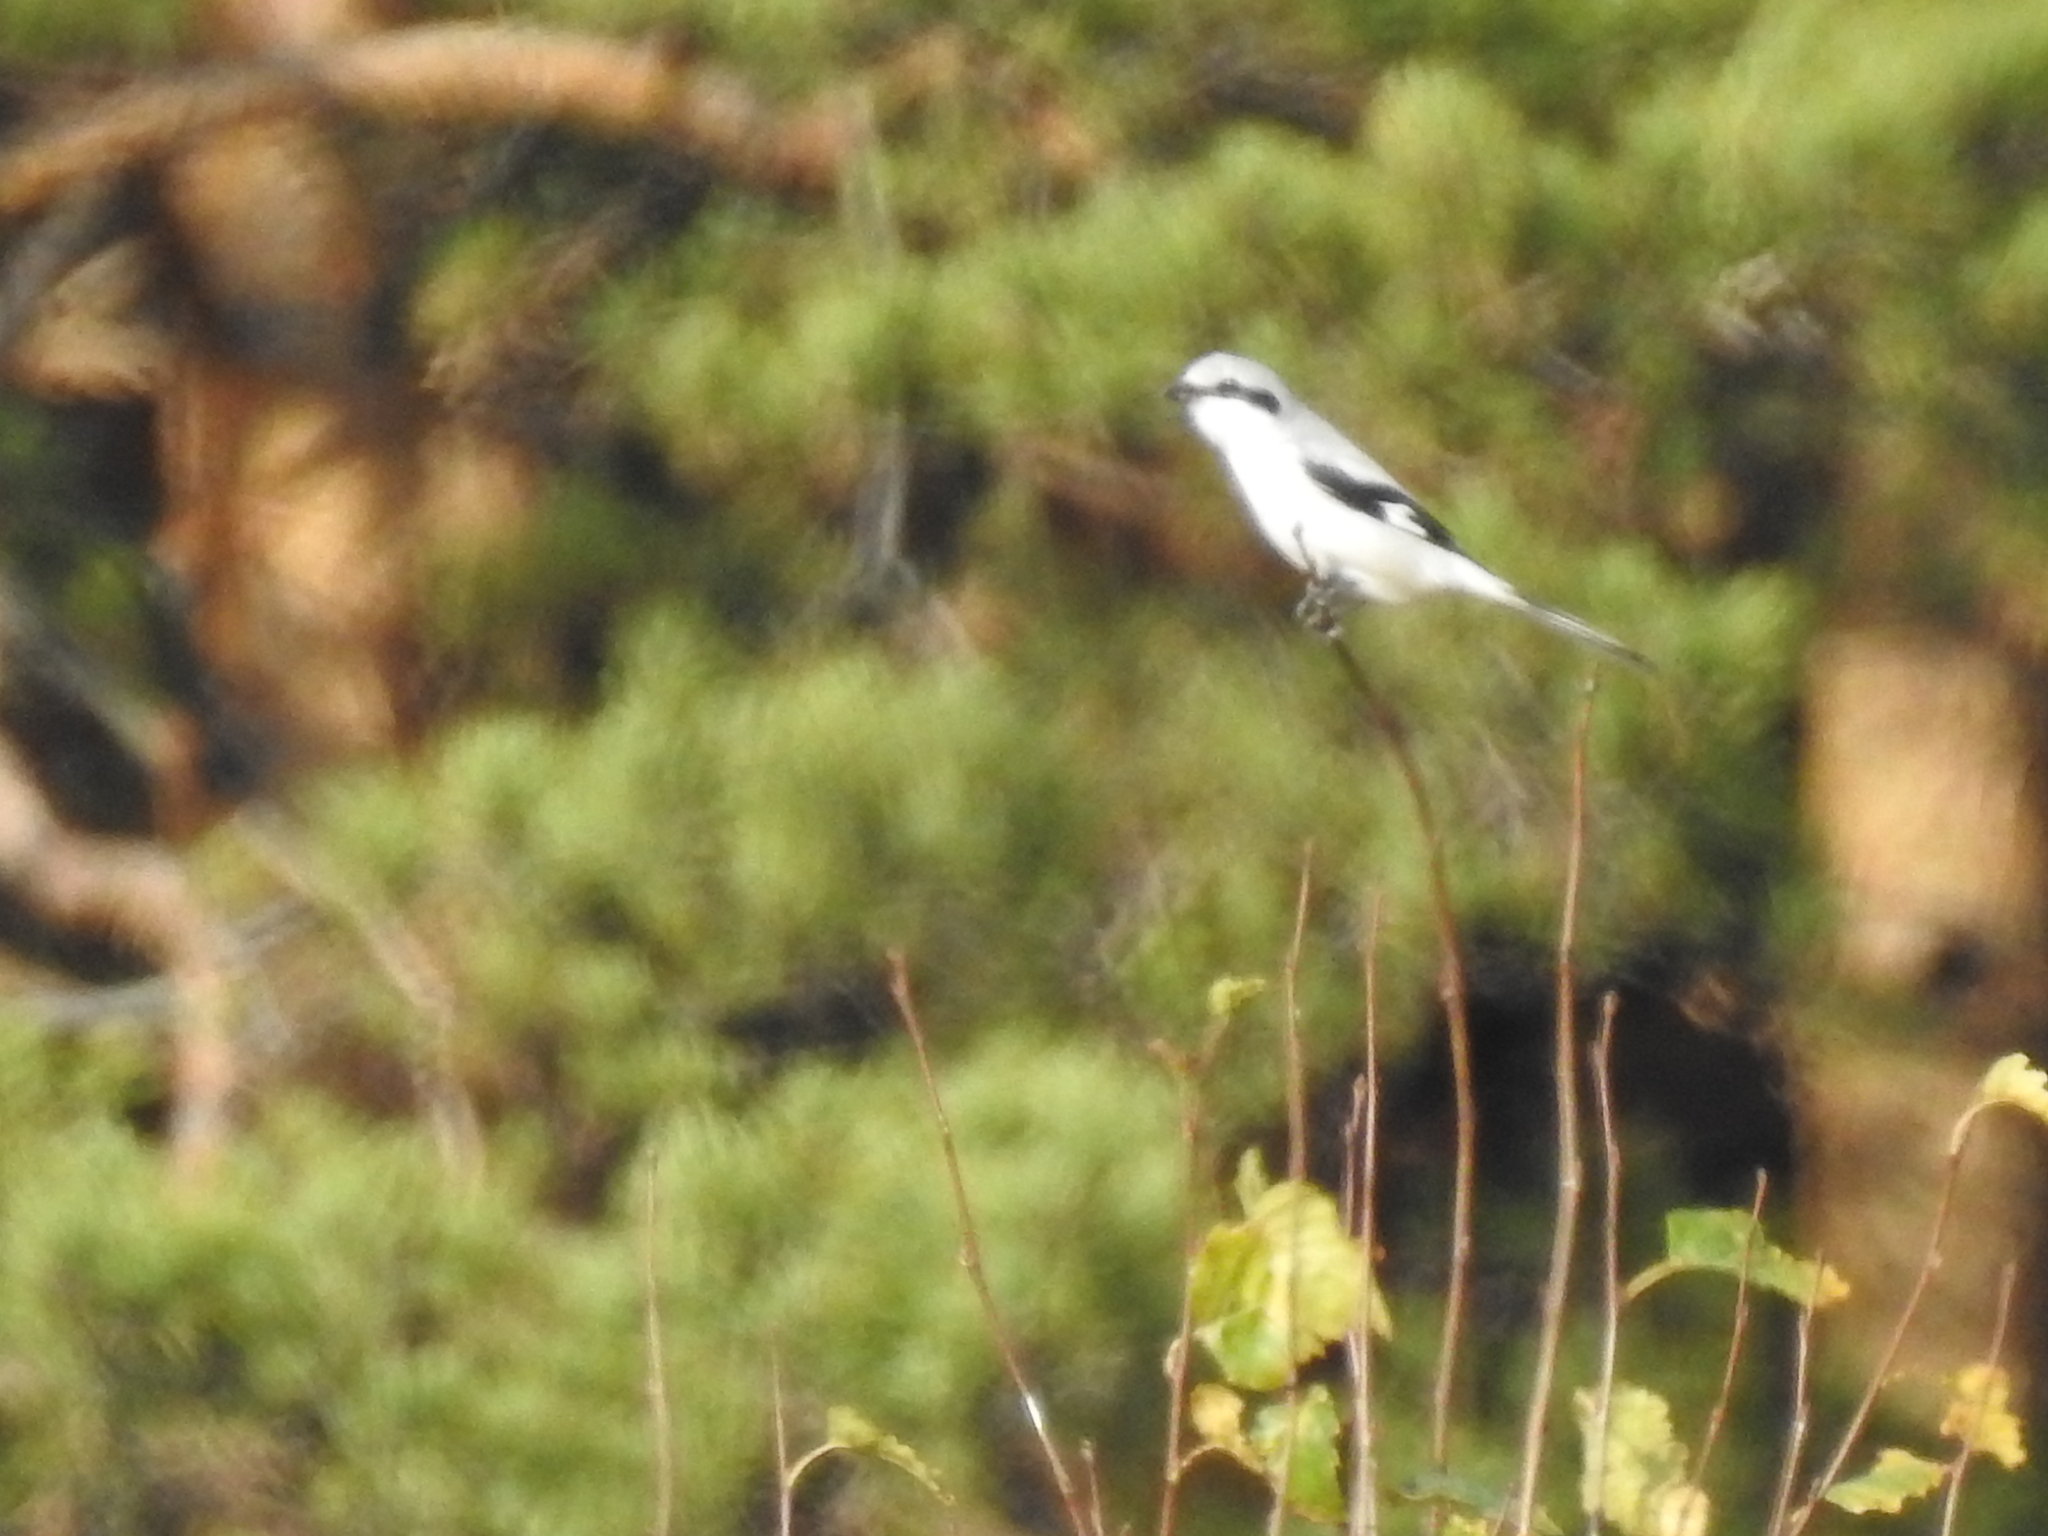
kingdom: Animalia
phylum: Chordata
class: Aves
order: Passeriformes
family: Laniidae
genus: Lanius
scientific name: Lanius excubitor
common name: Great grey shrike
